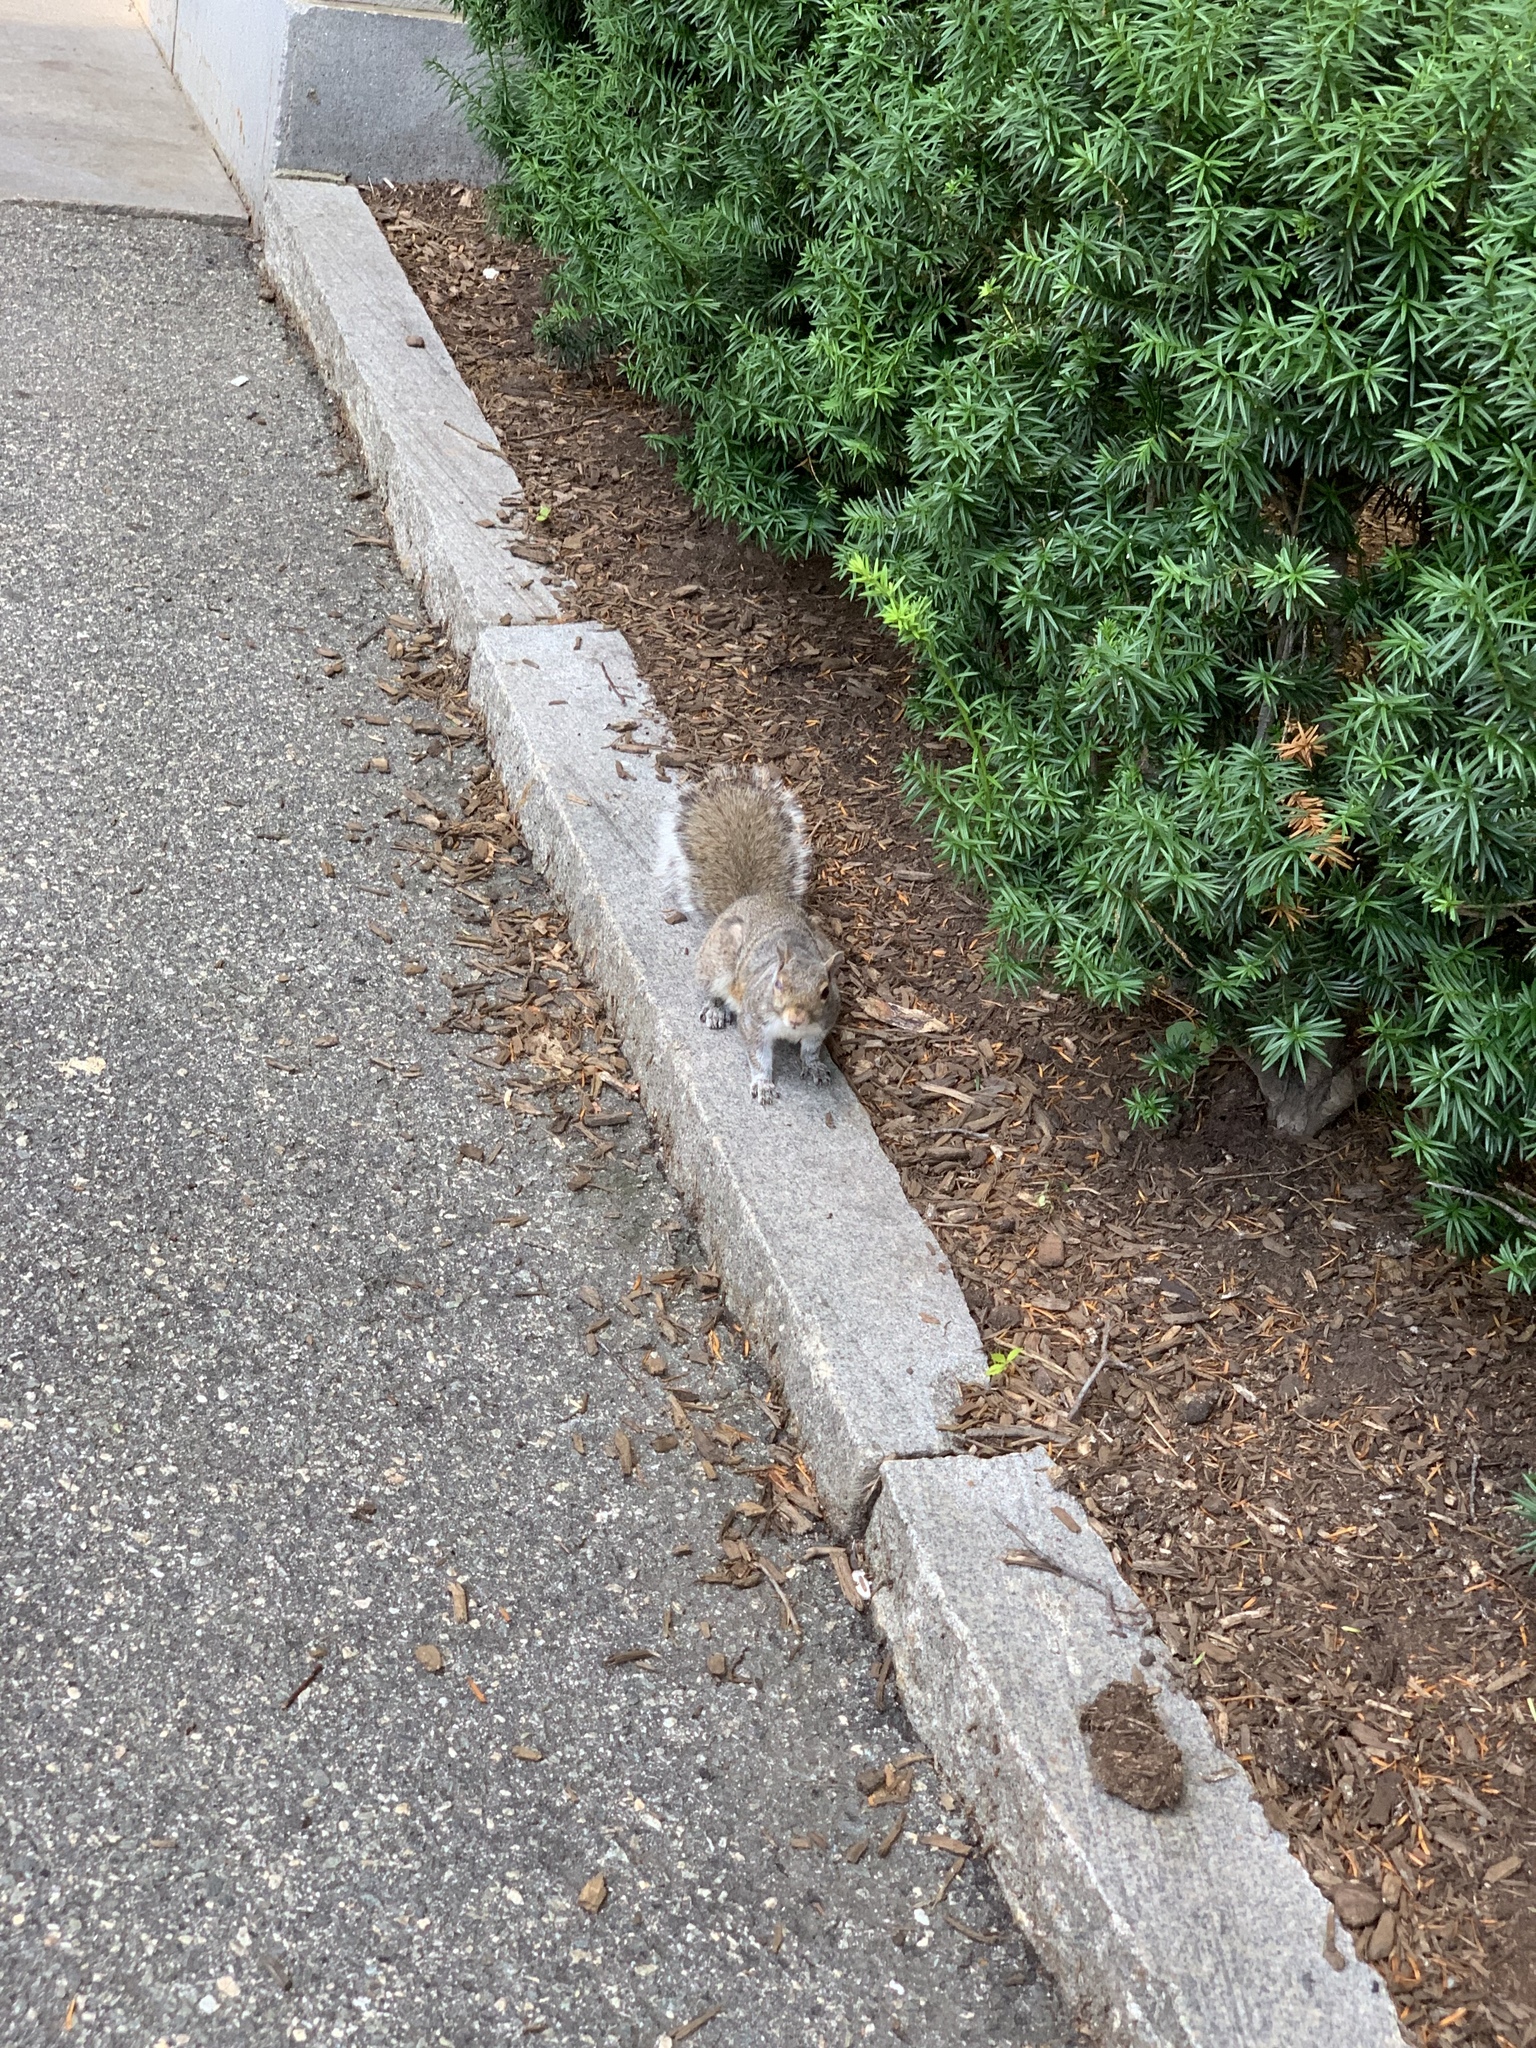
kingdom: Animalia
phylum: Chordata
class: Mammalia
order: Rodentia
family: Sciuridae
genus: Sciurus
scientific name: Sciurus carolinensis
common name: Eastern gray squirrel
